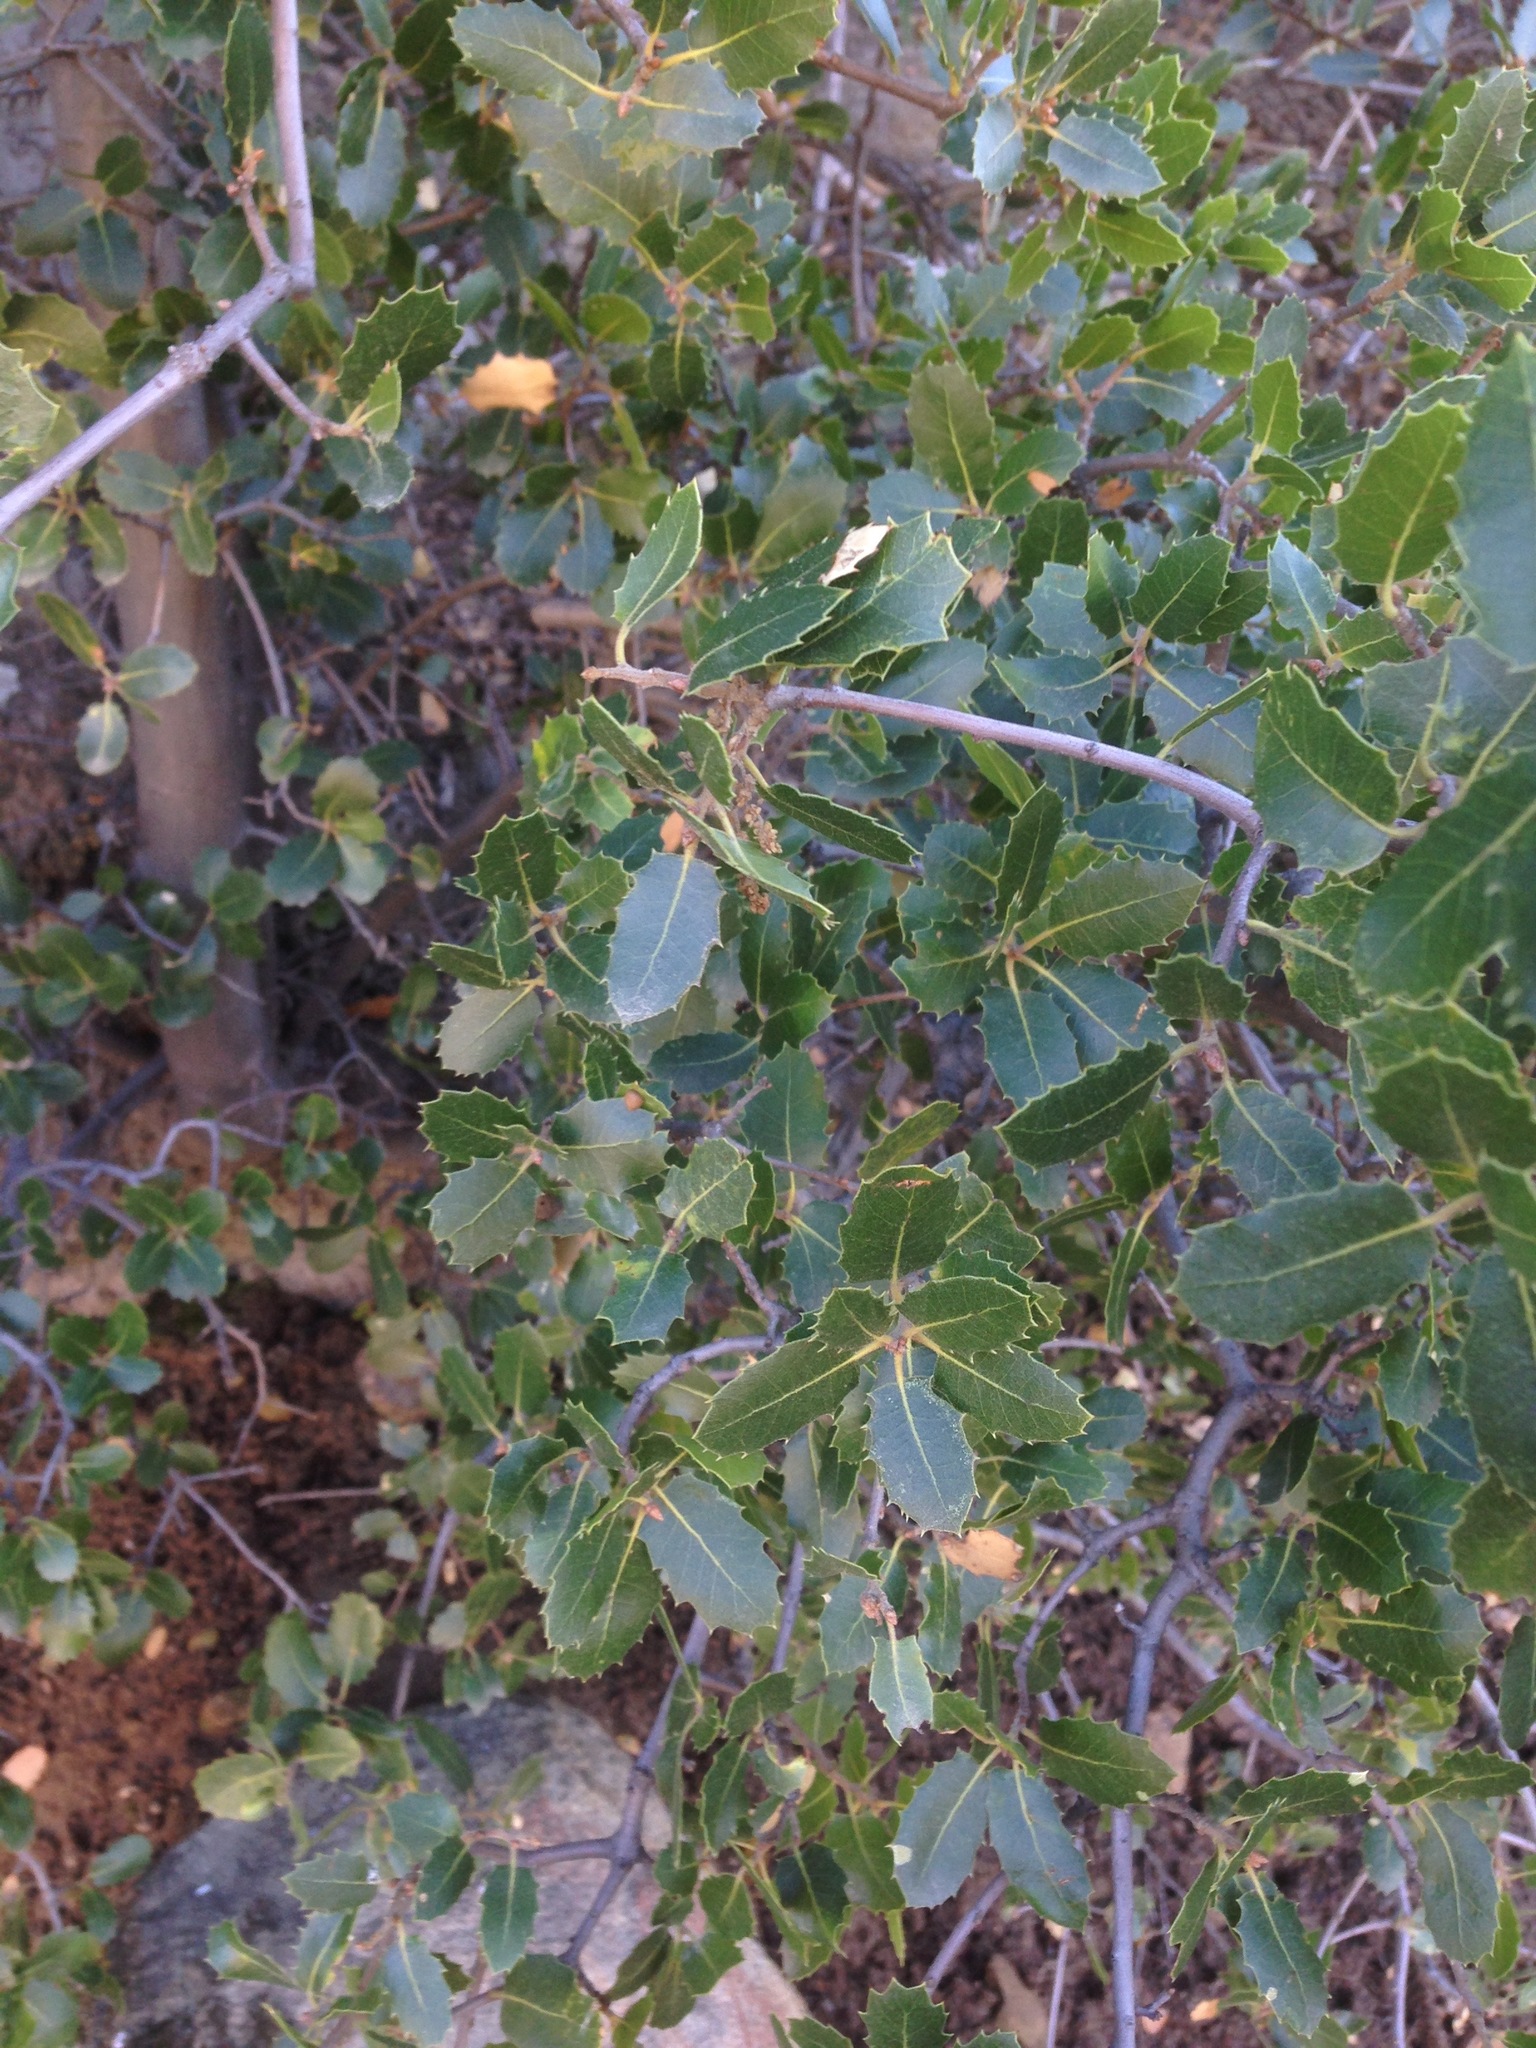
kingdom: Plantae
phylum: Tracheophyta
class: Magnoliopsida
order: Fagales
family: Fagaceae
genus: Quercus
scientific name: Quercus wislizeni
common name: Interior live oak
